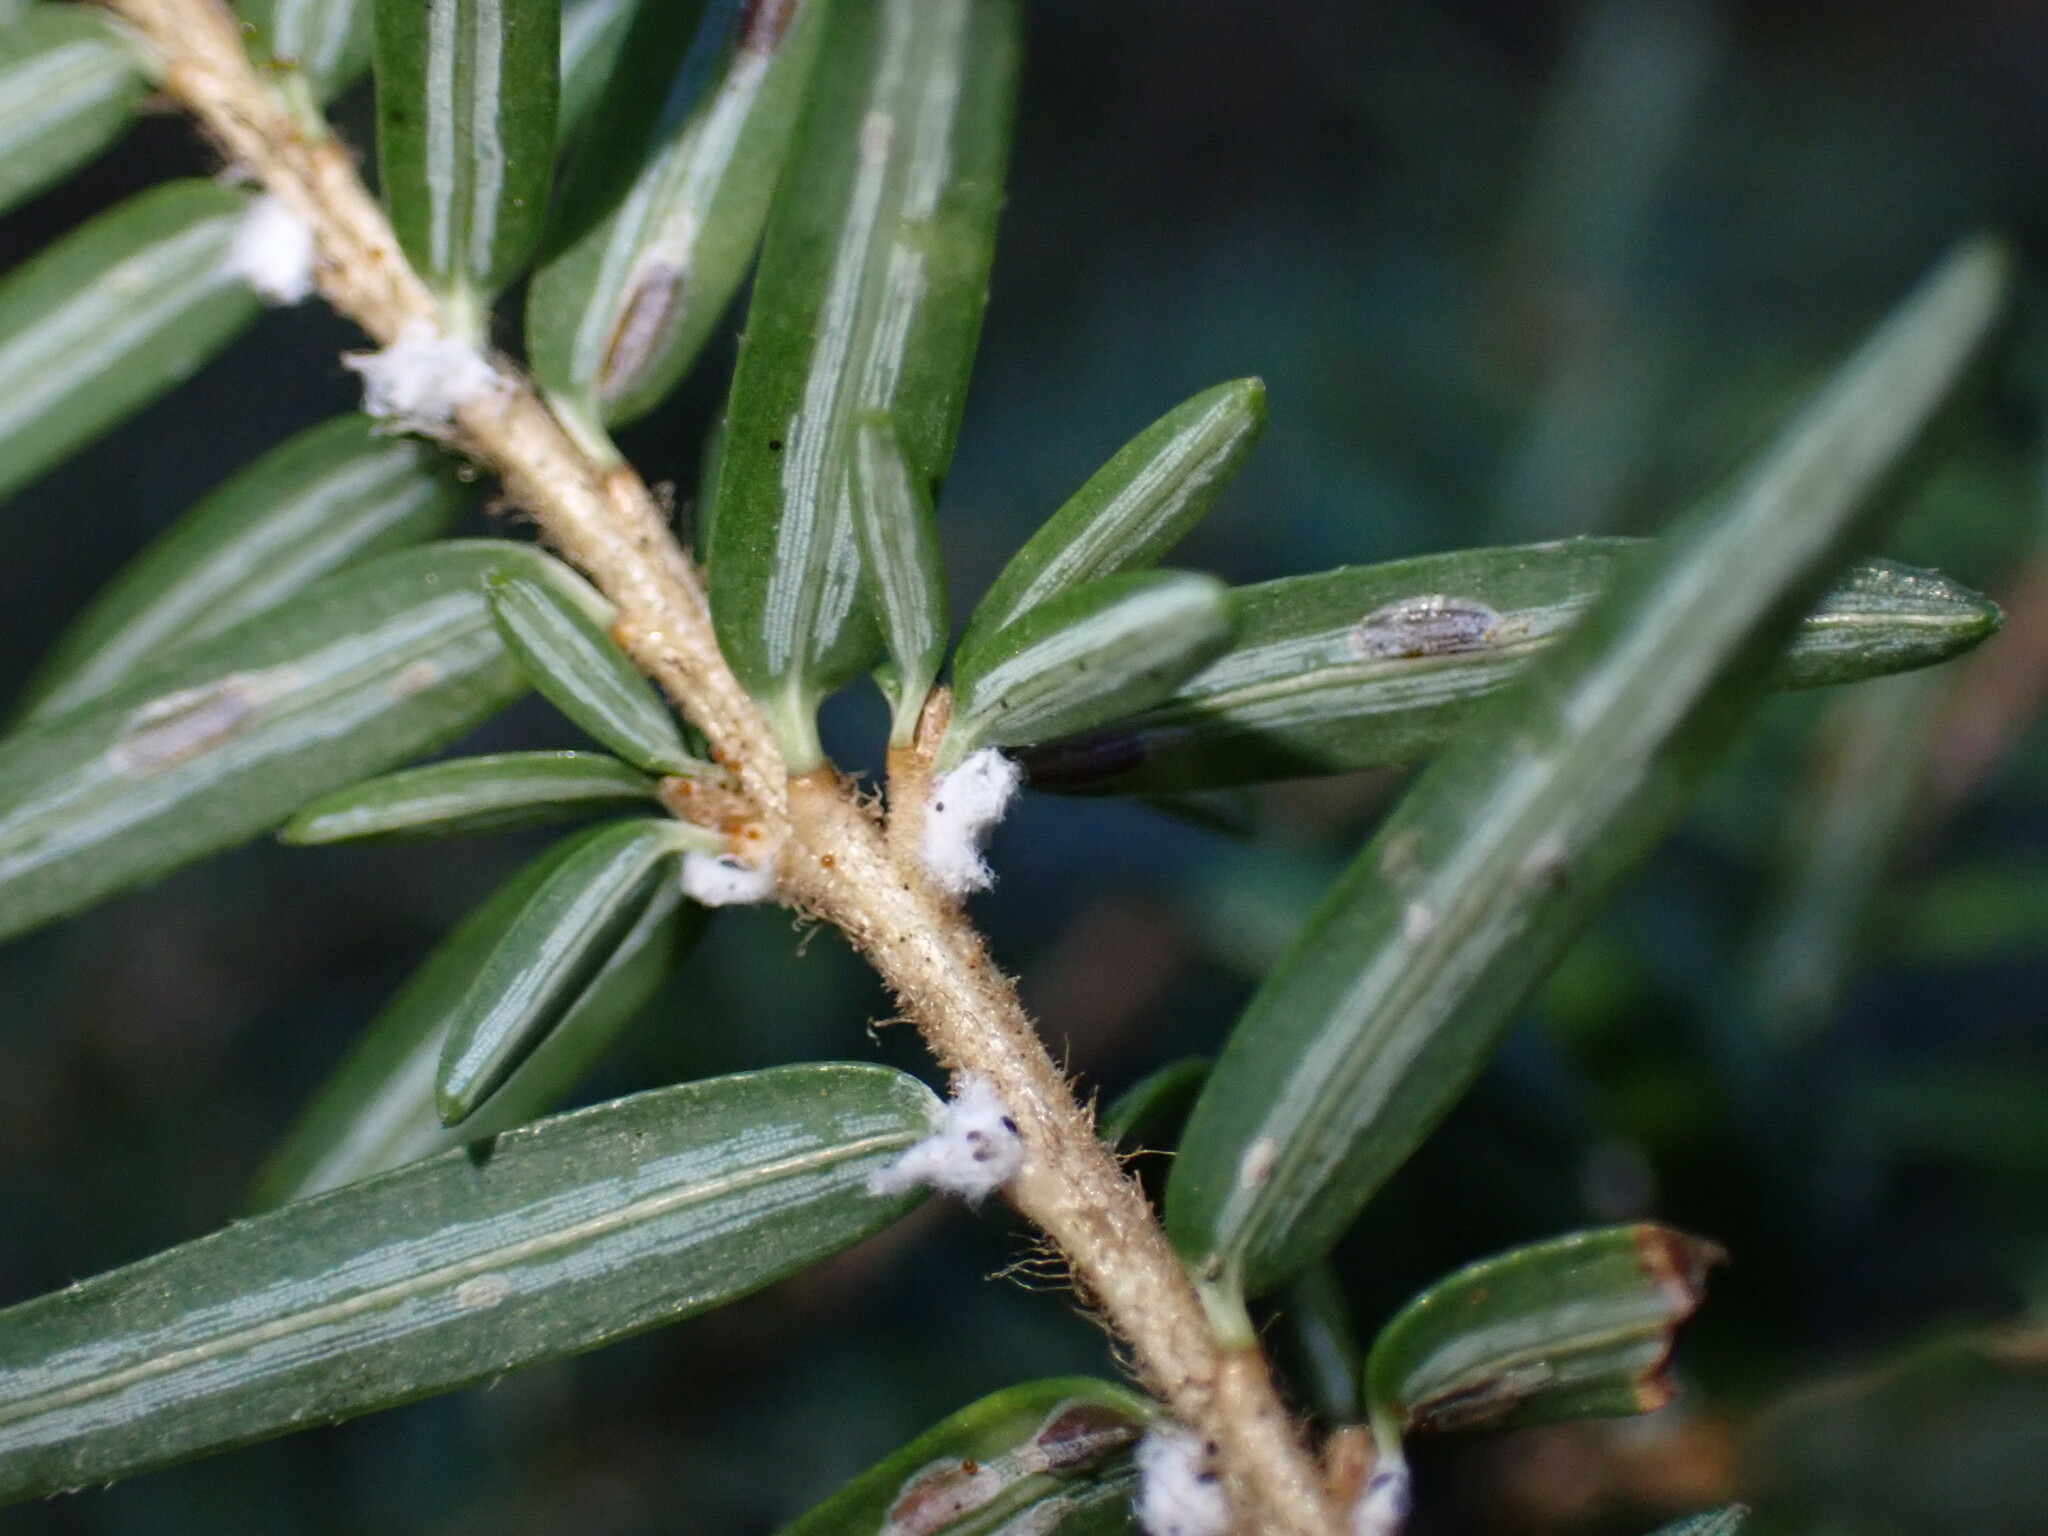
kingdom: Animalia
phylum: Arthropoda
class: Insecta
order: Hemiptera
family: Adelgidae
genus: Adelges
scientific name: Adelges tsugae
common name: Hemlock woolly adelgid
